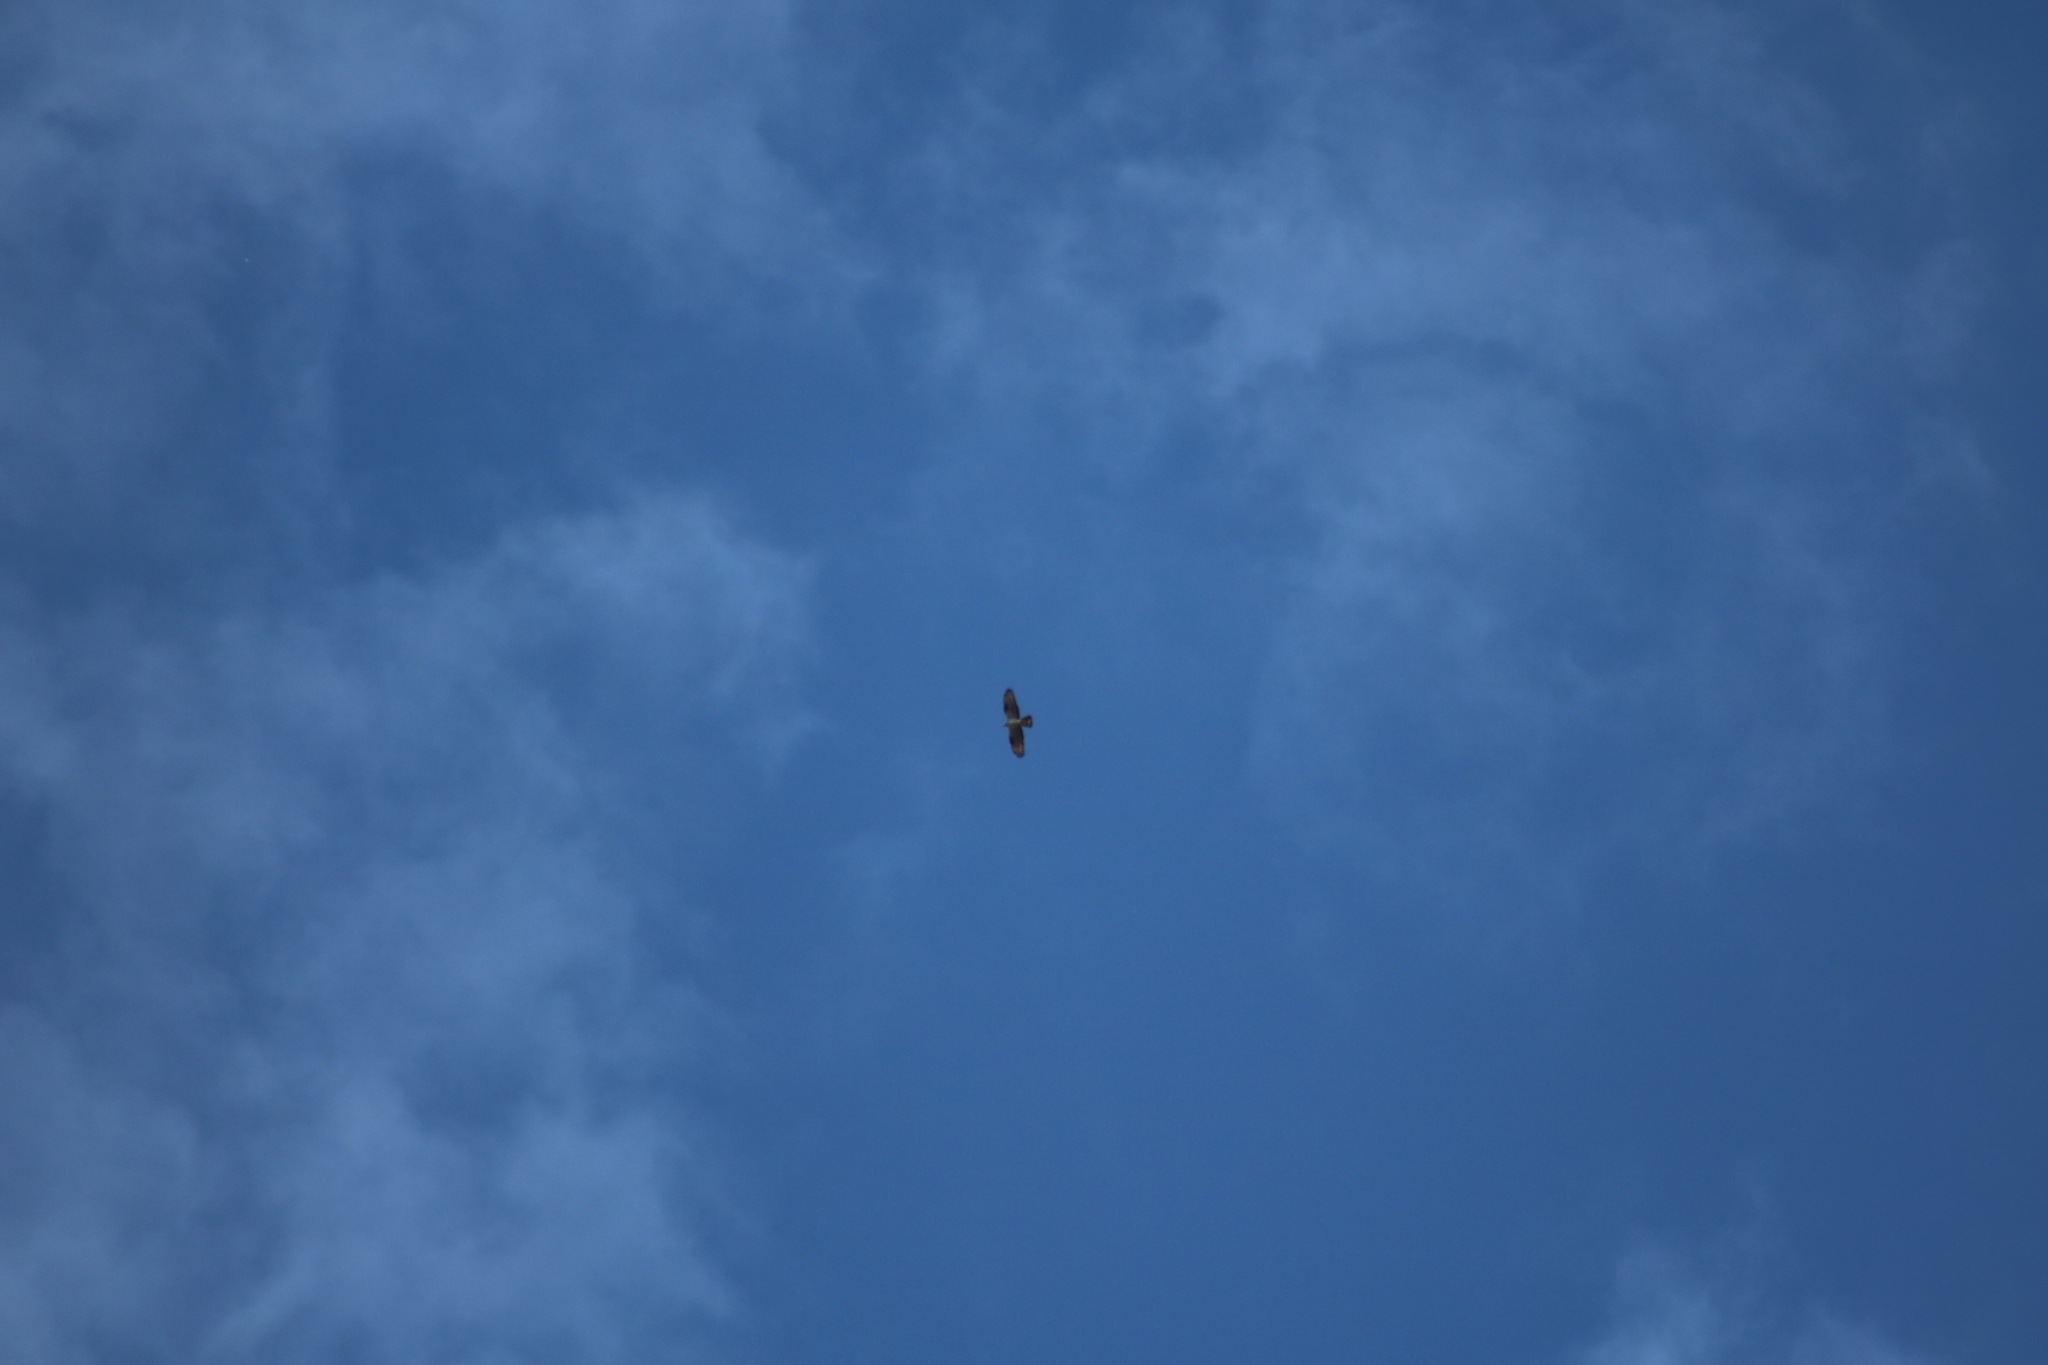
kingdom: Animalia
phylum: Chordata
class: Aves
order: Accipitriformes
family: Accipitridae
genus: Pernis
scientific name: Pernis apivorus
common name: European honey buzzard
